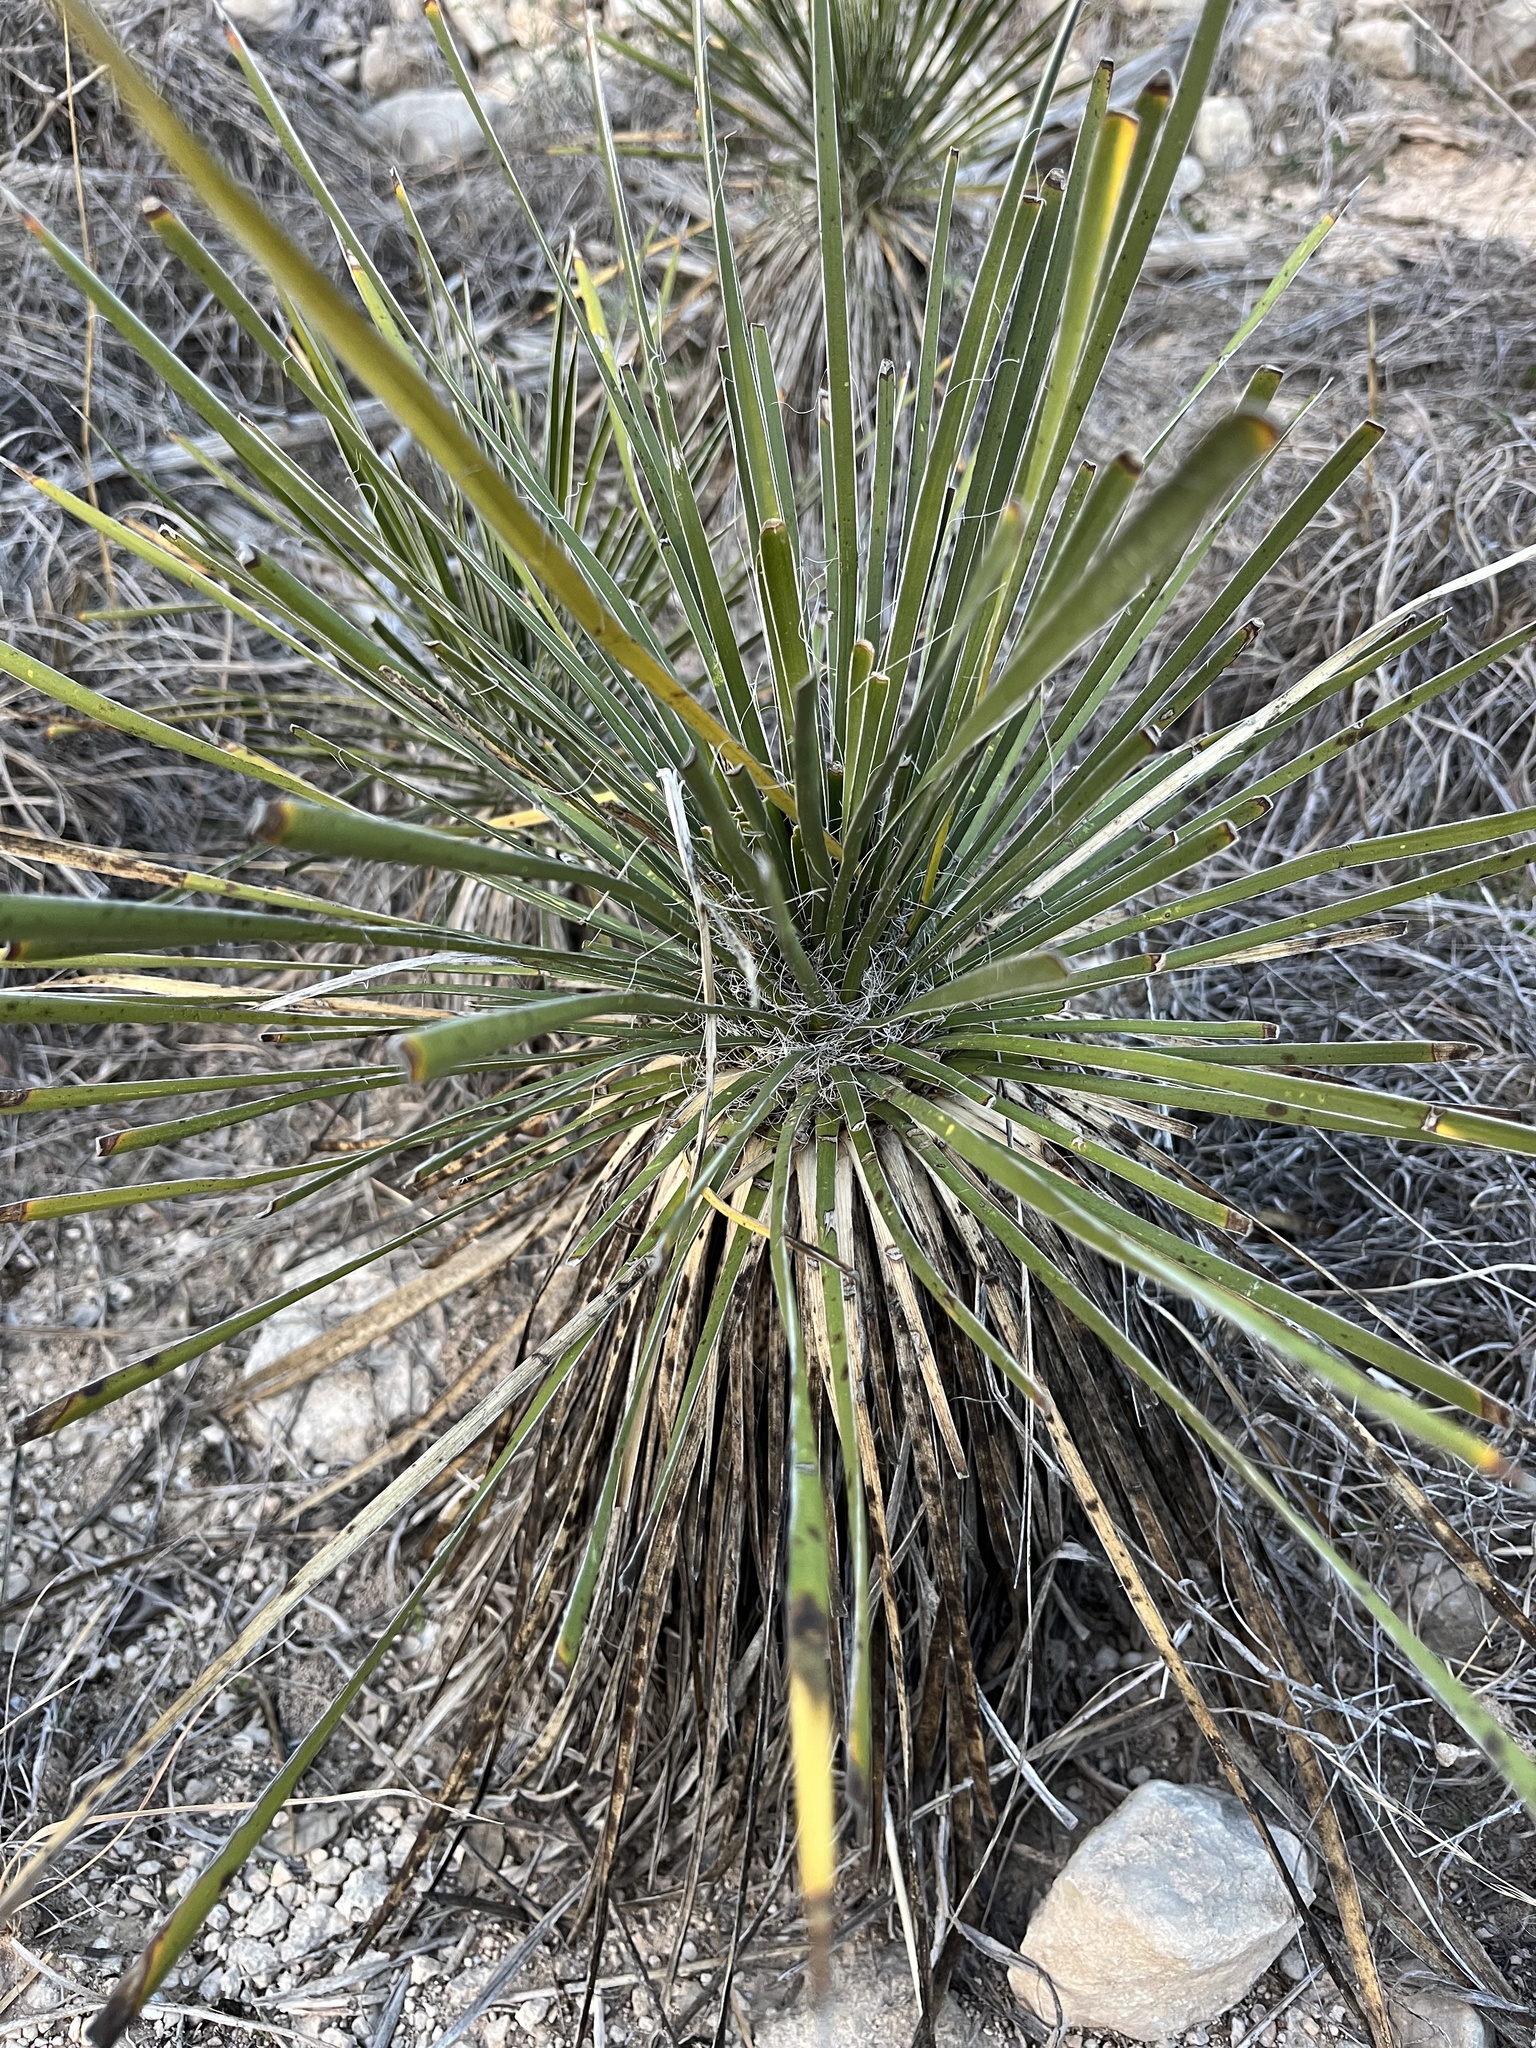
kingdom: Plantae
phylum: Tracheophyta
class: Liliopsida
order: Asparagales
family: Asparagaceae
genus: Yucca
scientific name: Yucca constricta
